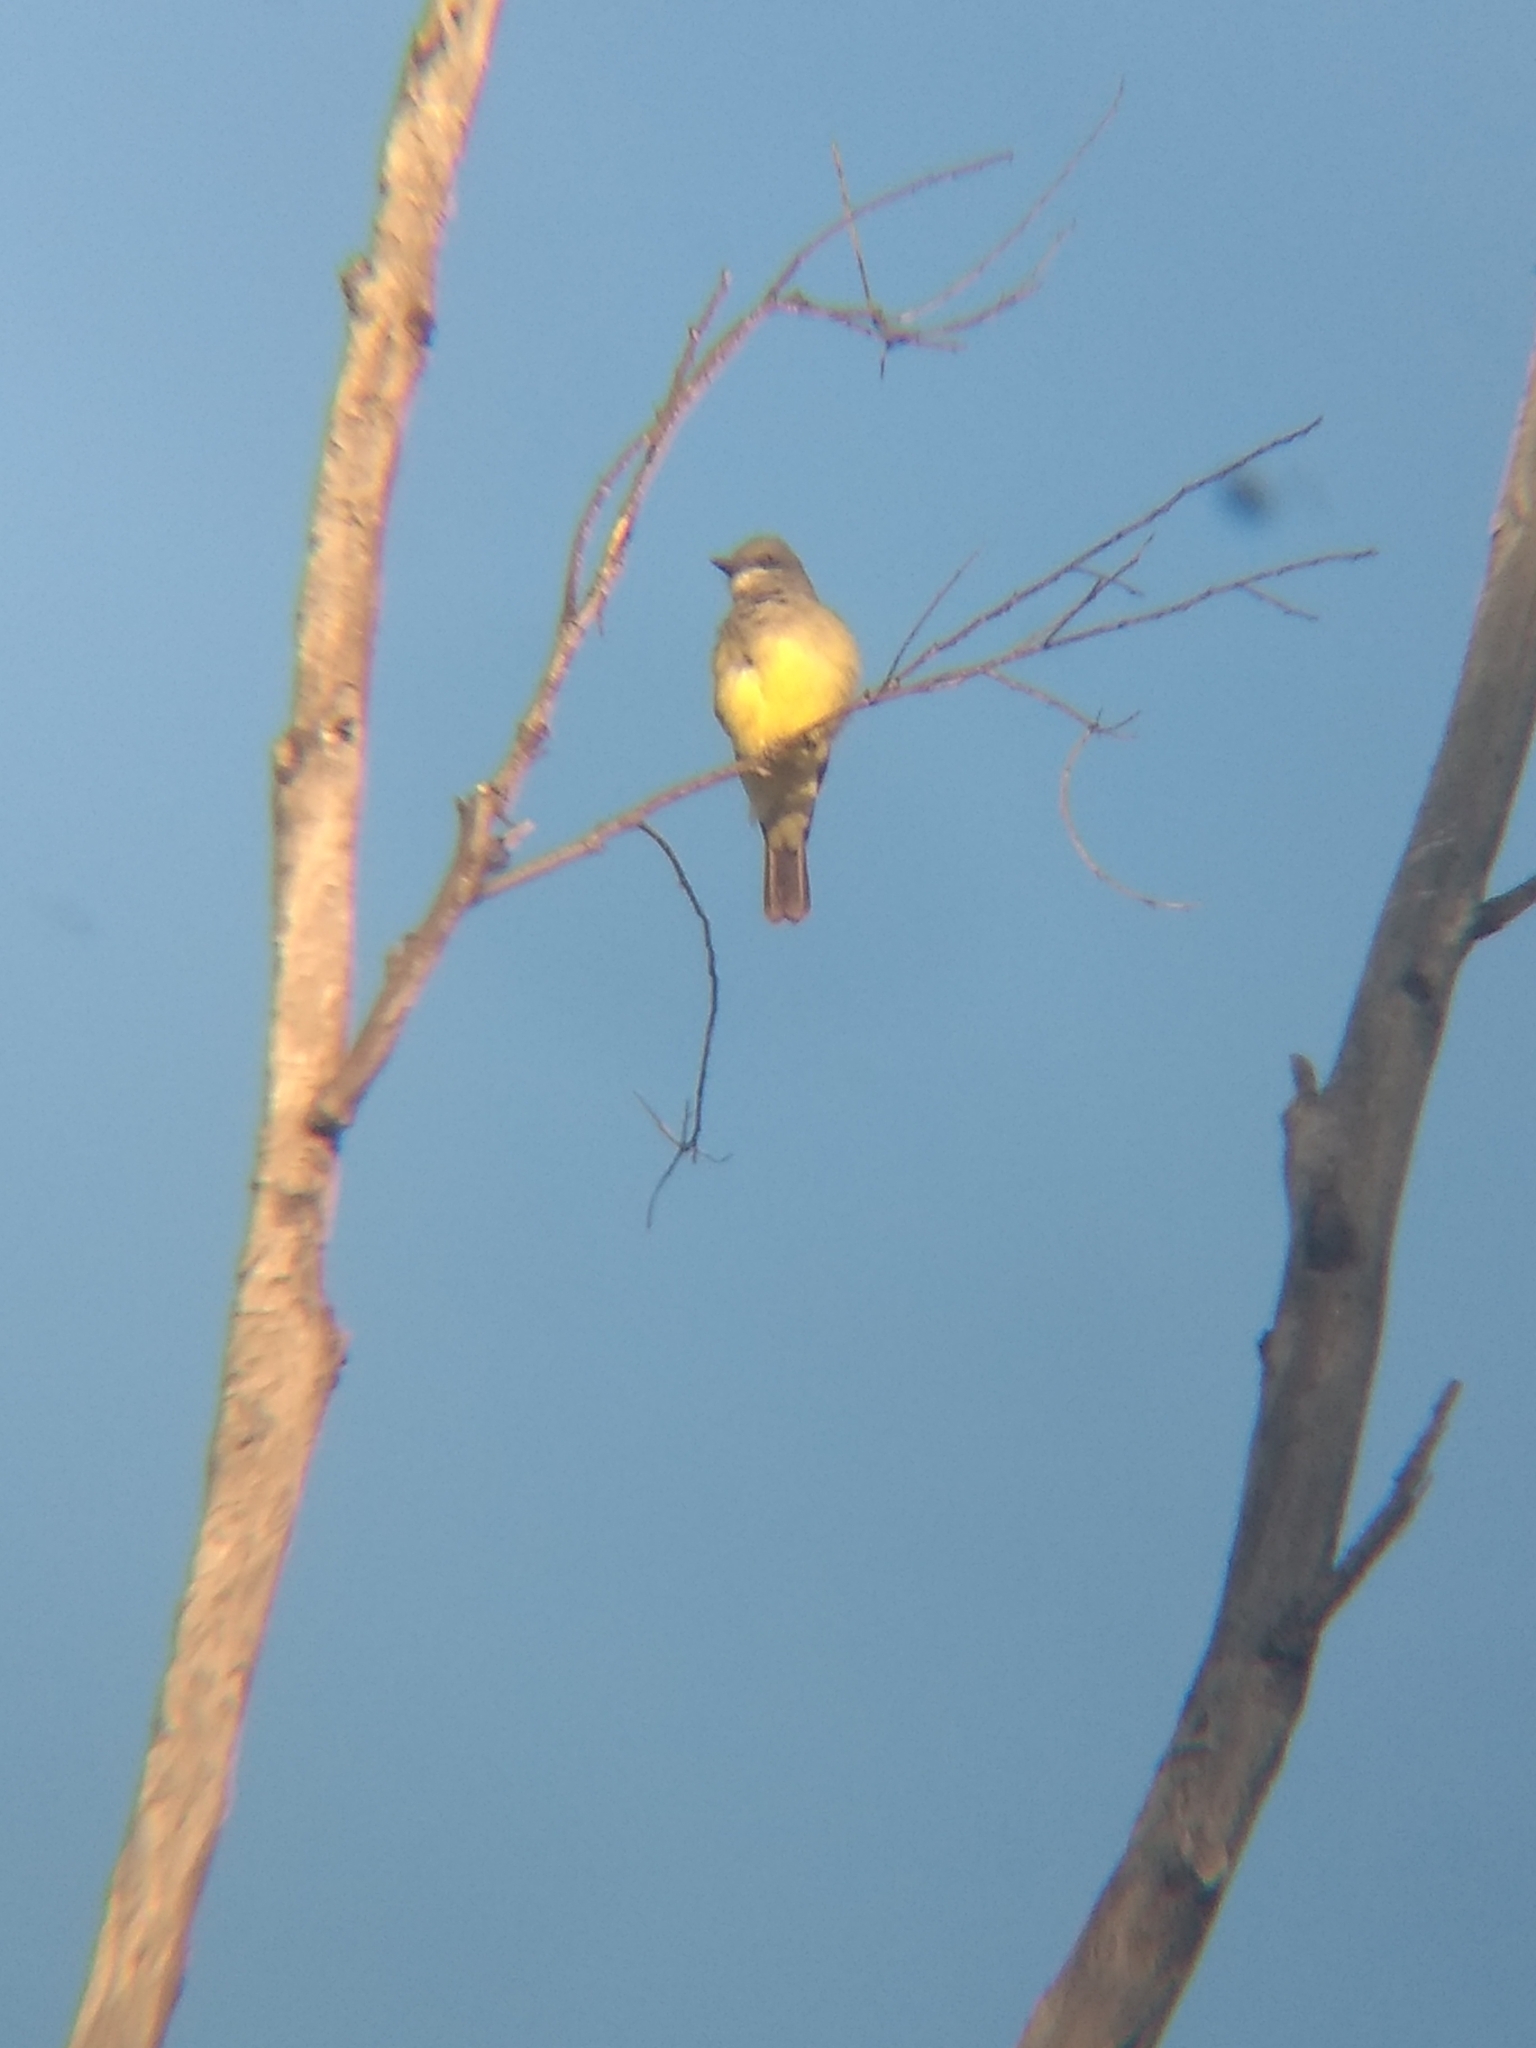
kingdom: Animalia
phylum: Chordata
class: Aves
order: Passeriformes
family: Tyrannidae
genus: Tyrannus
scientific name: Tyrannus vociferans
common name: Cassin's kingbird
